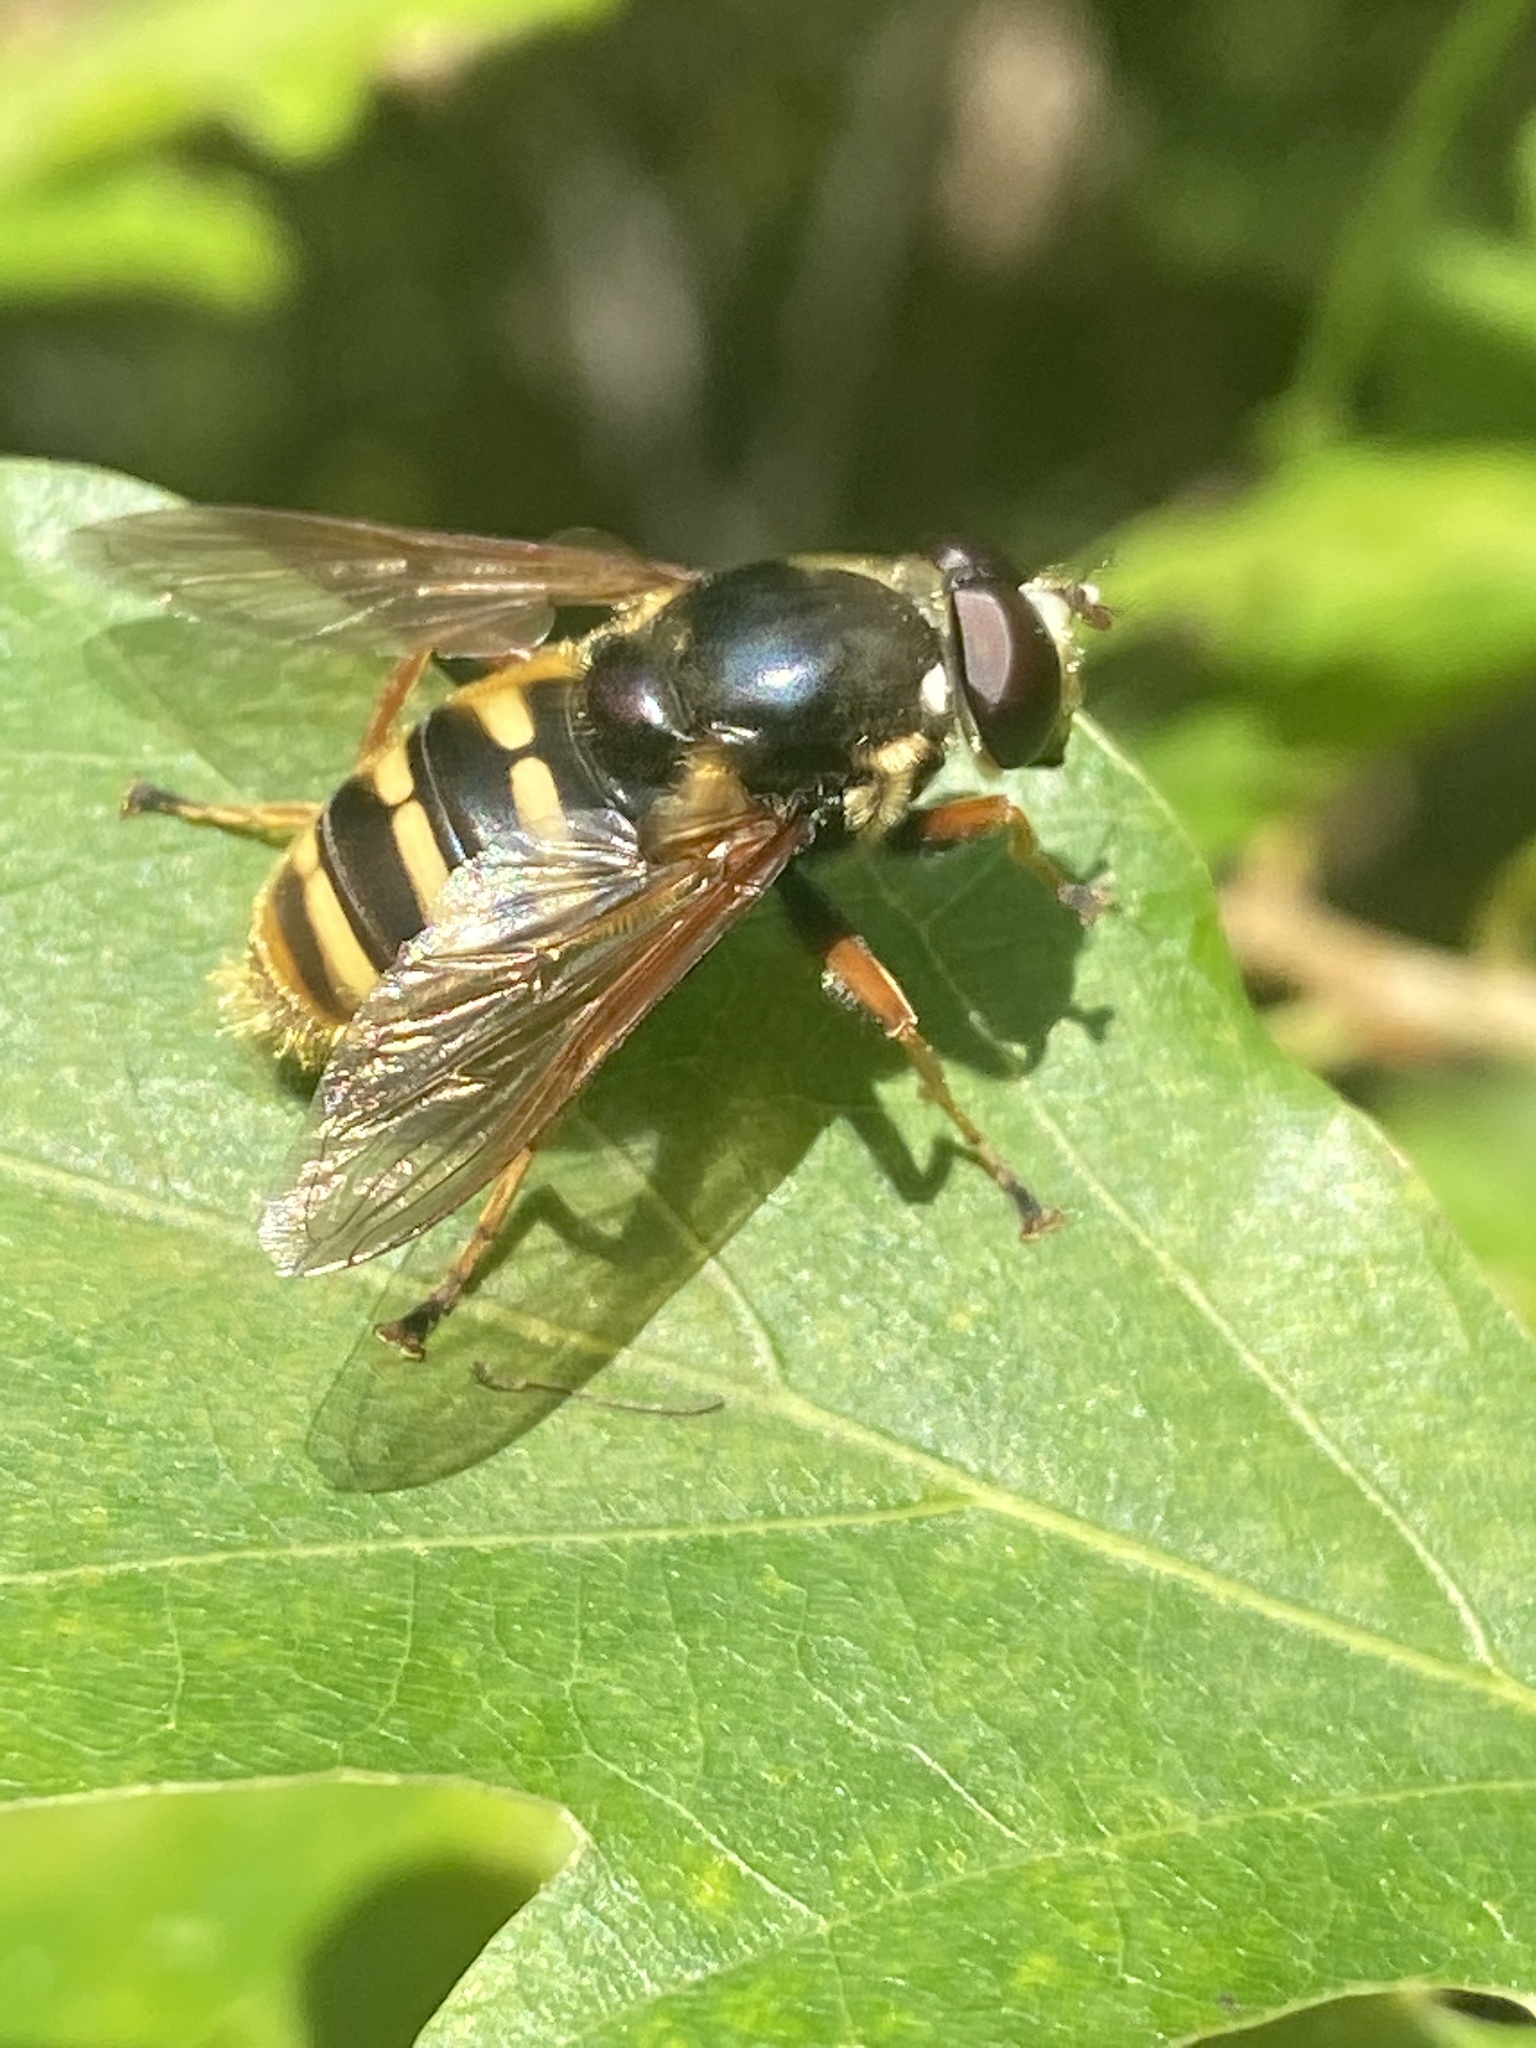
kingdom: Animalia
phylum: Arthropoda
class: Insecta
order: Diptera
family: Syrphidae
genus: Sericomyia
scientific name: Sericomyia silentis
